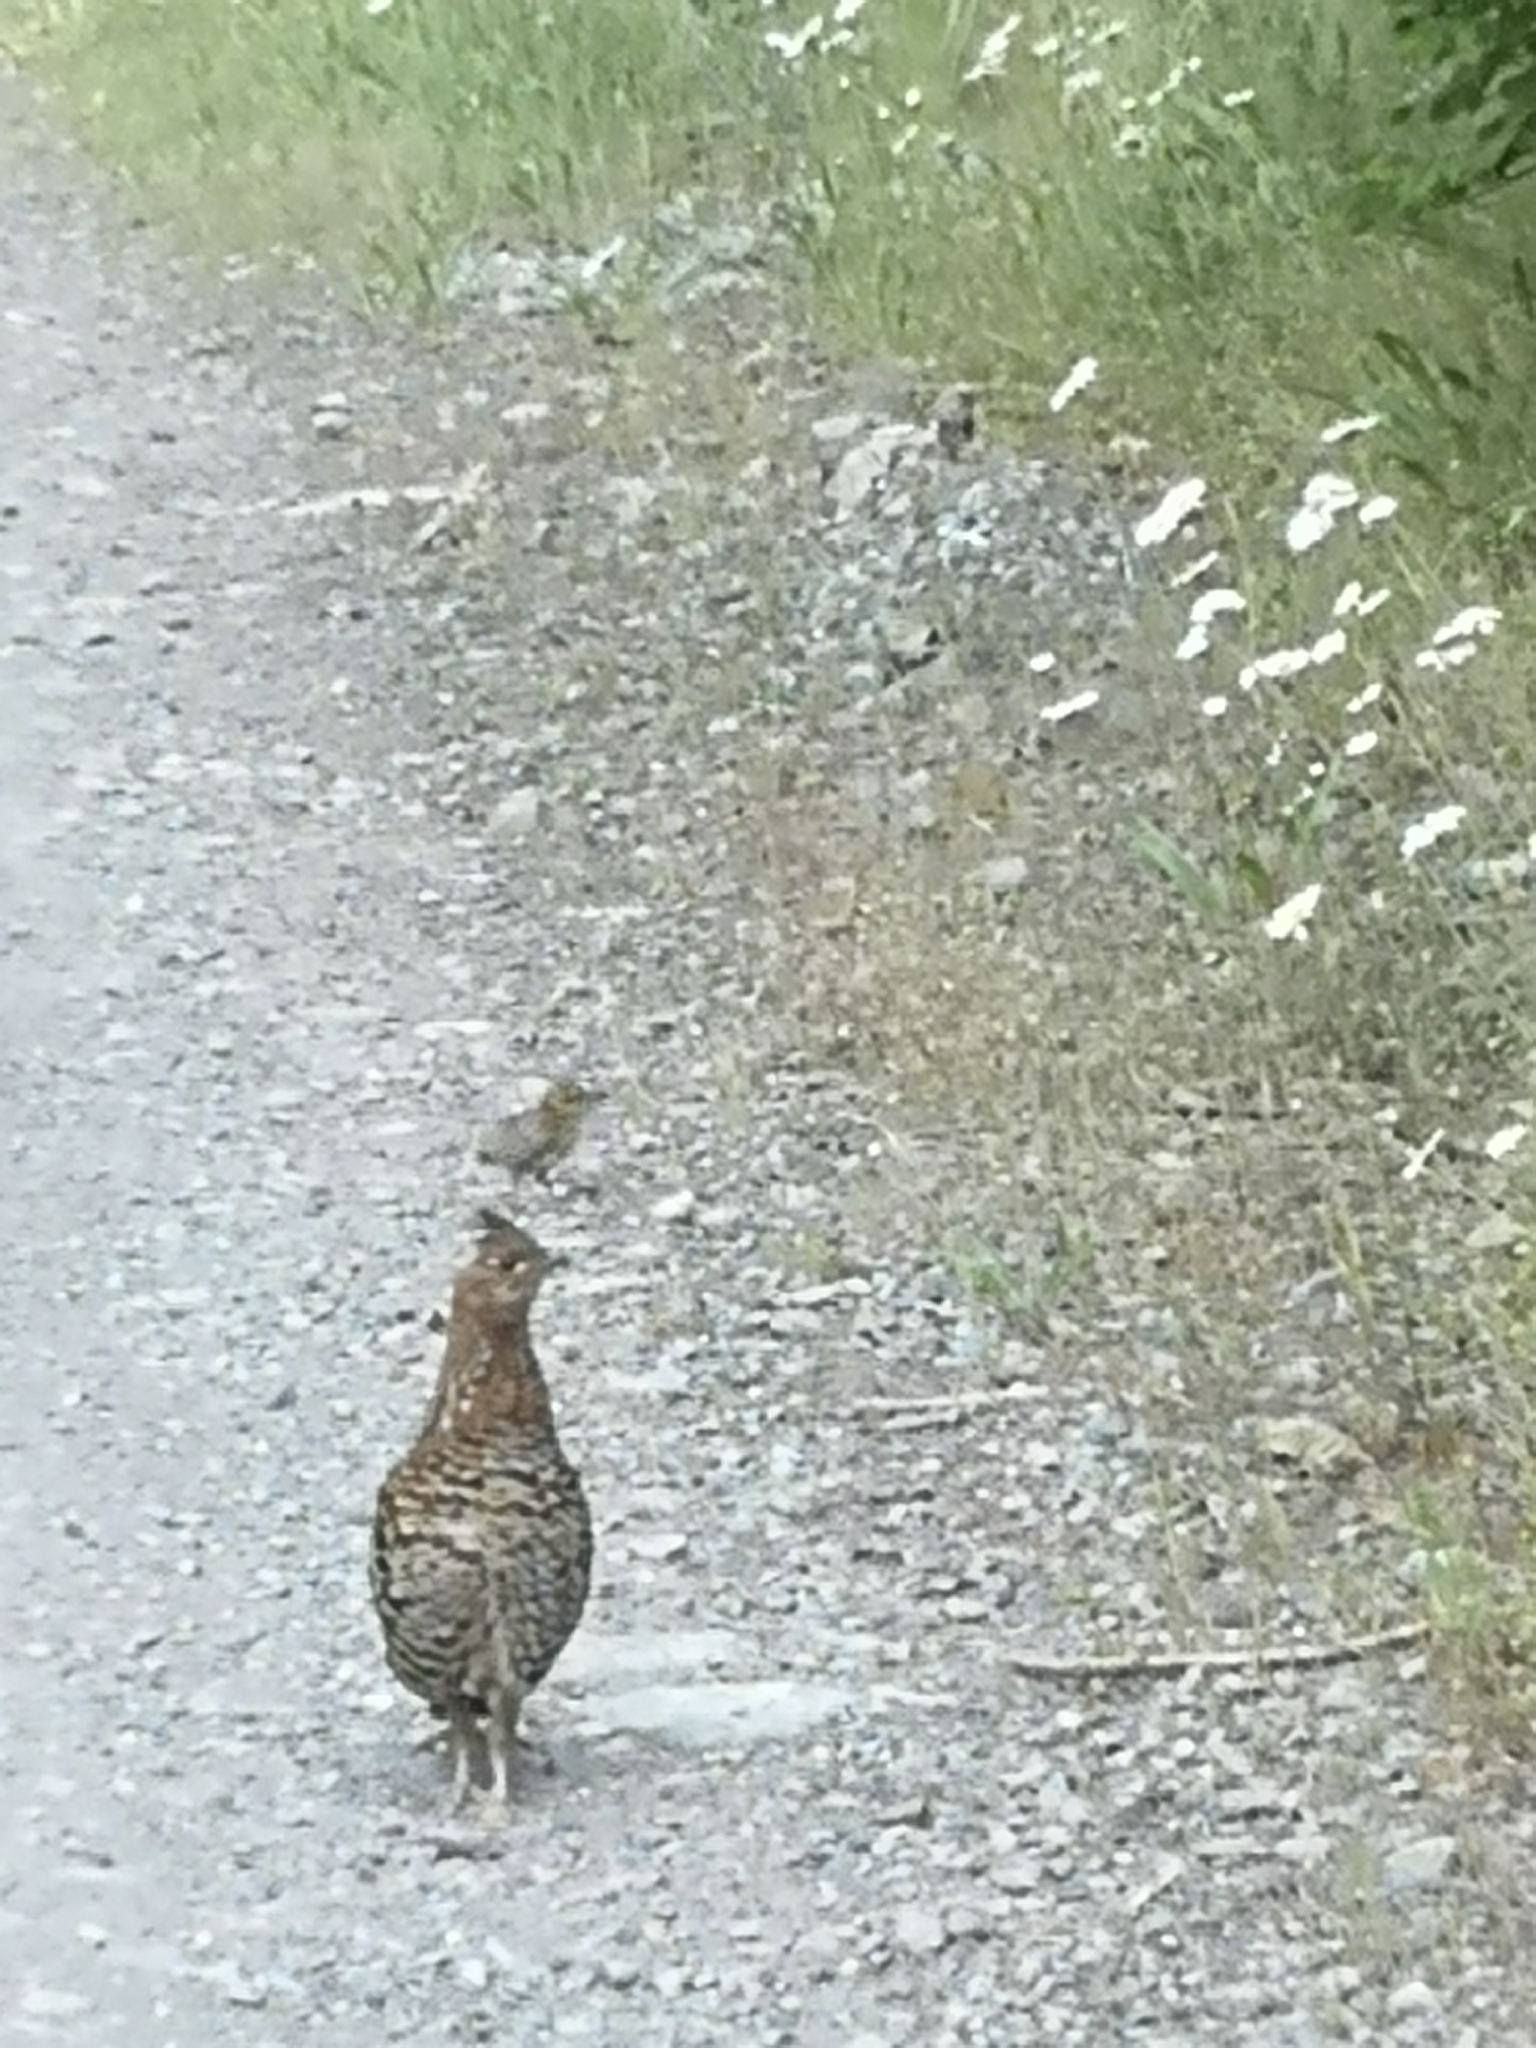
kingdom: Animalia
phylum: Chordata
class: Aves
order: Galliformes
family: Phasianidae
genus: Bonasa
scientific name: Bonasa umbellus
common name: Ruffed grouse
